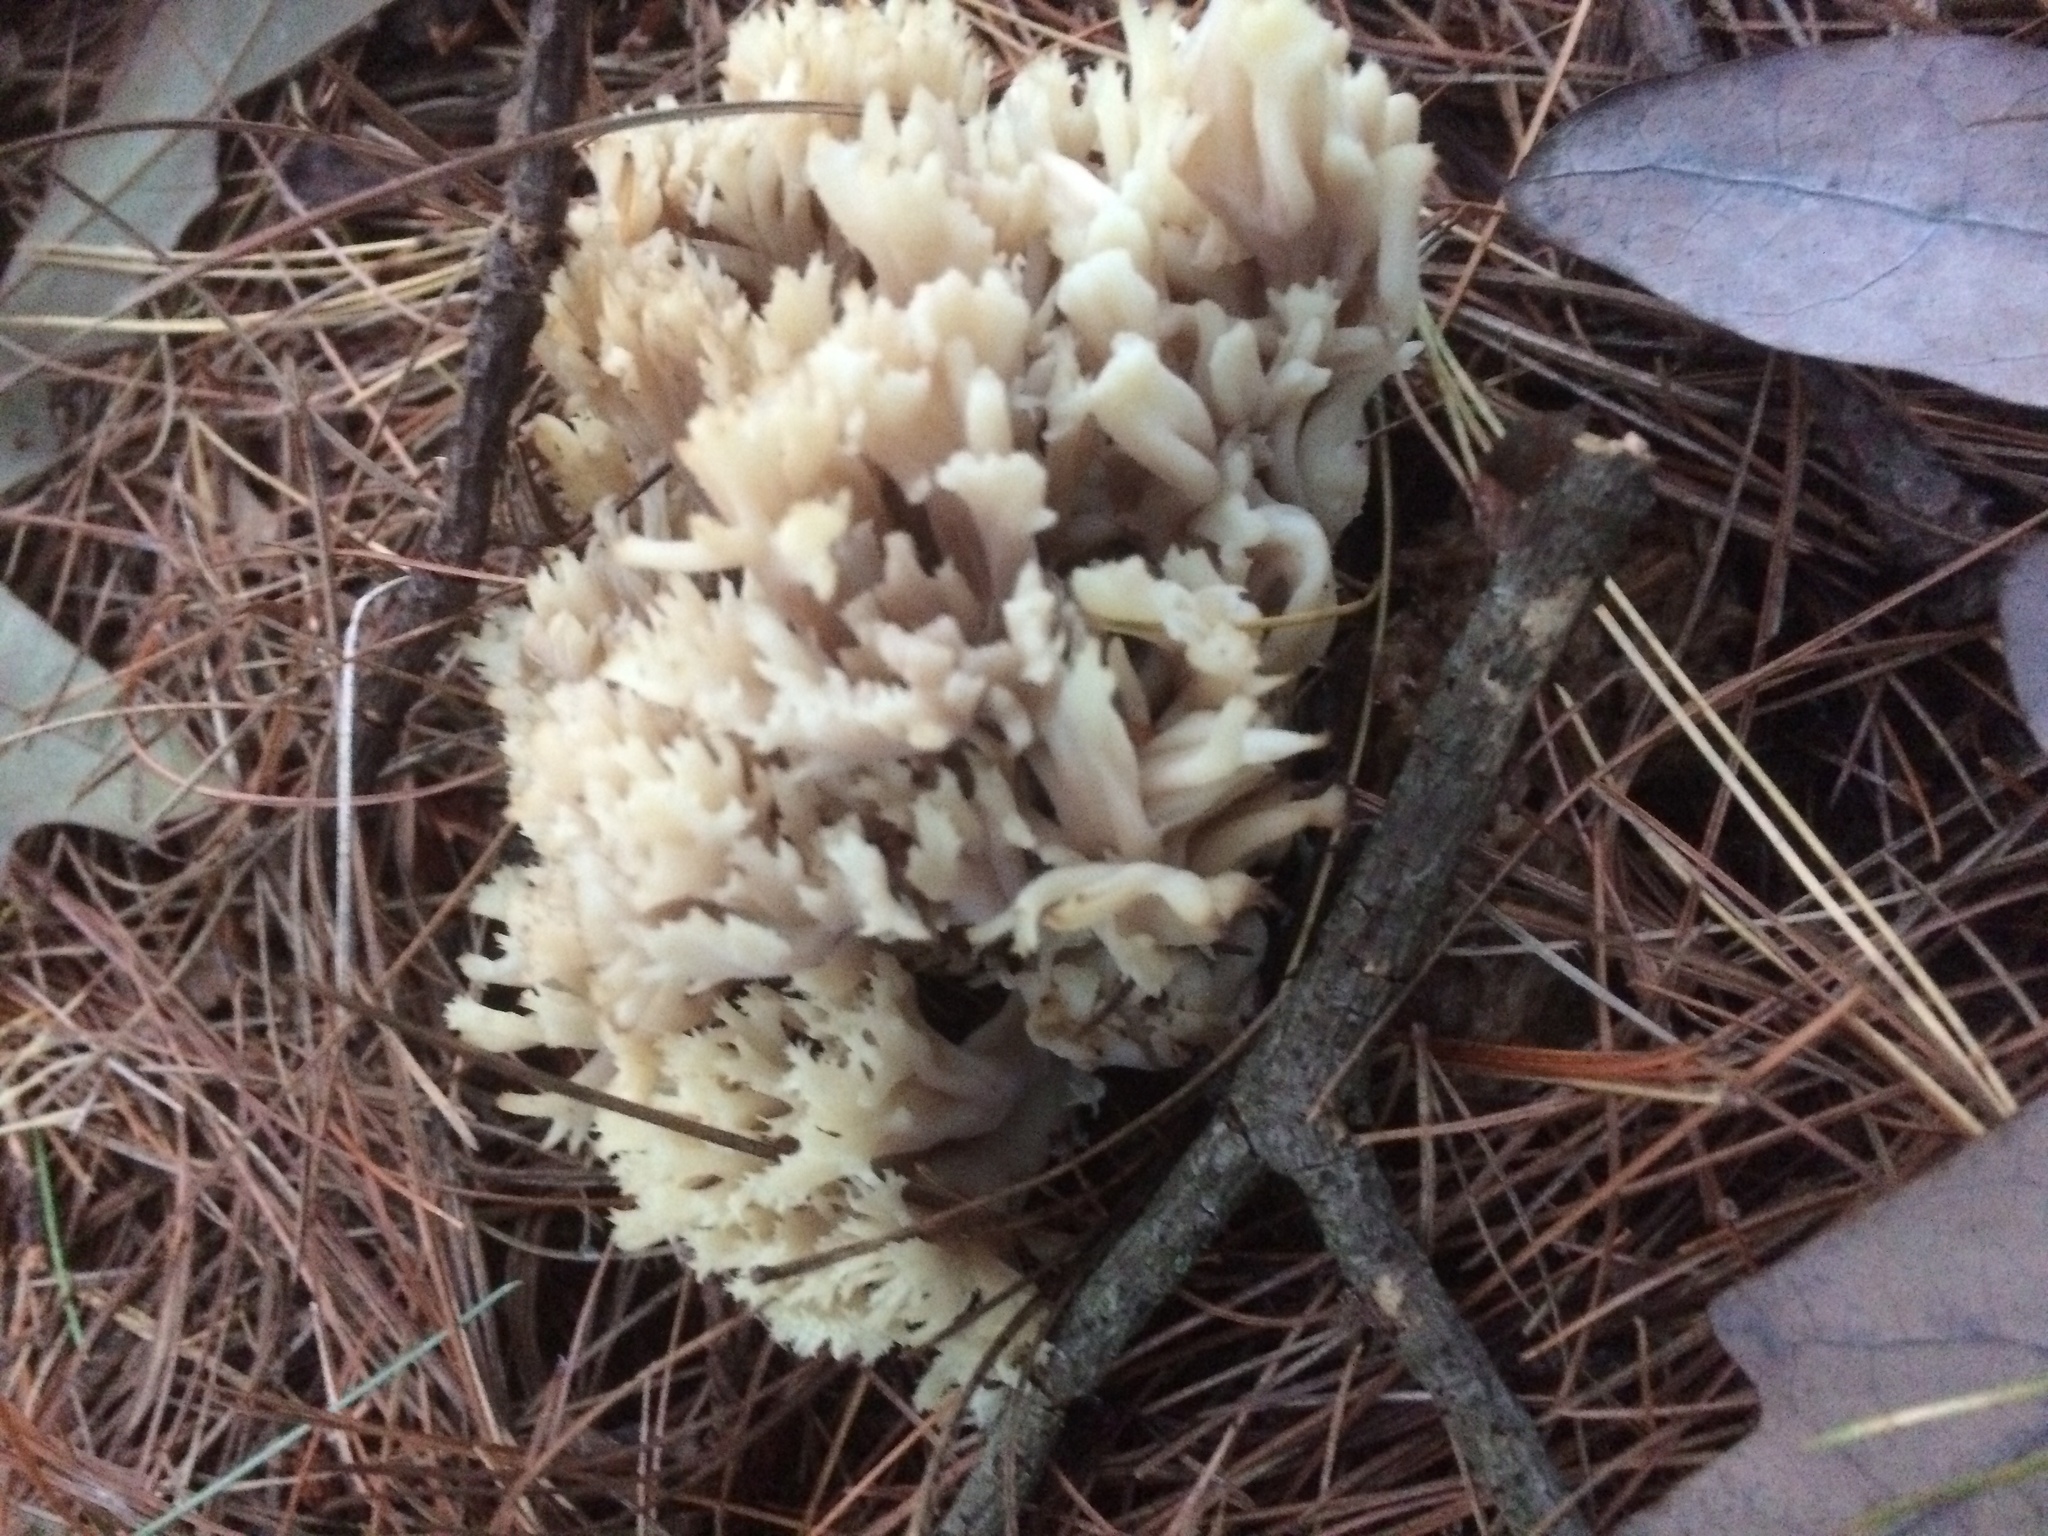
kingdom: Fungi
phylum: Basidiomycota
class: Agaricomycetes
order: Cantharellales
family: Hydnaceae
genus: Clavulina
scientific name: Clavulina coralloides
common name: Crested coral
